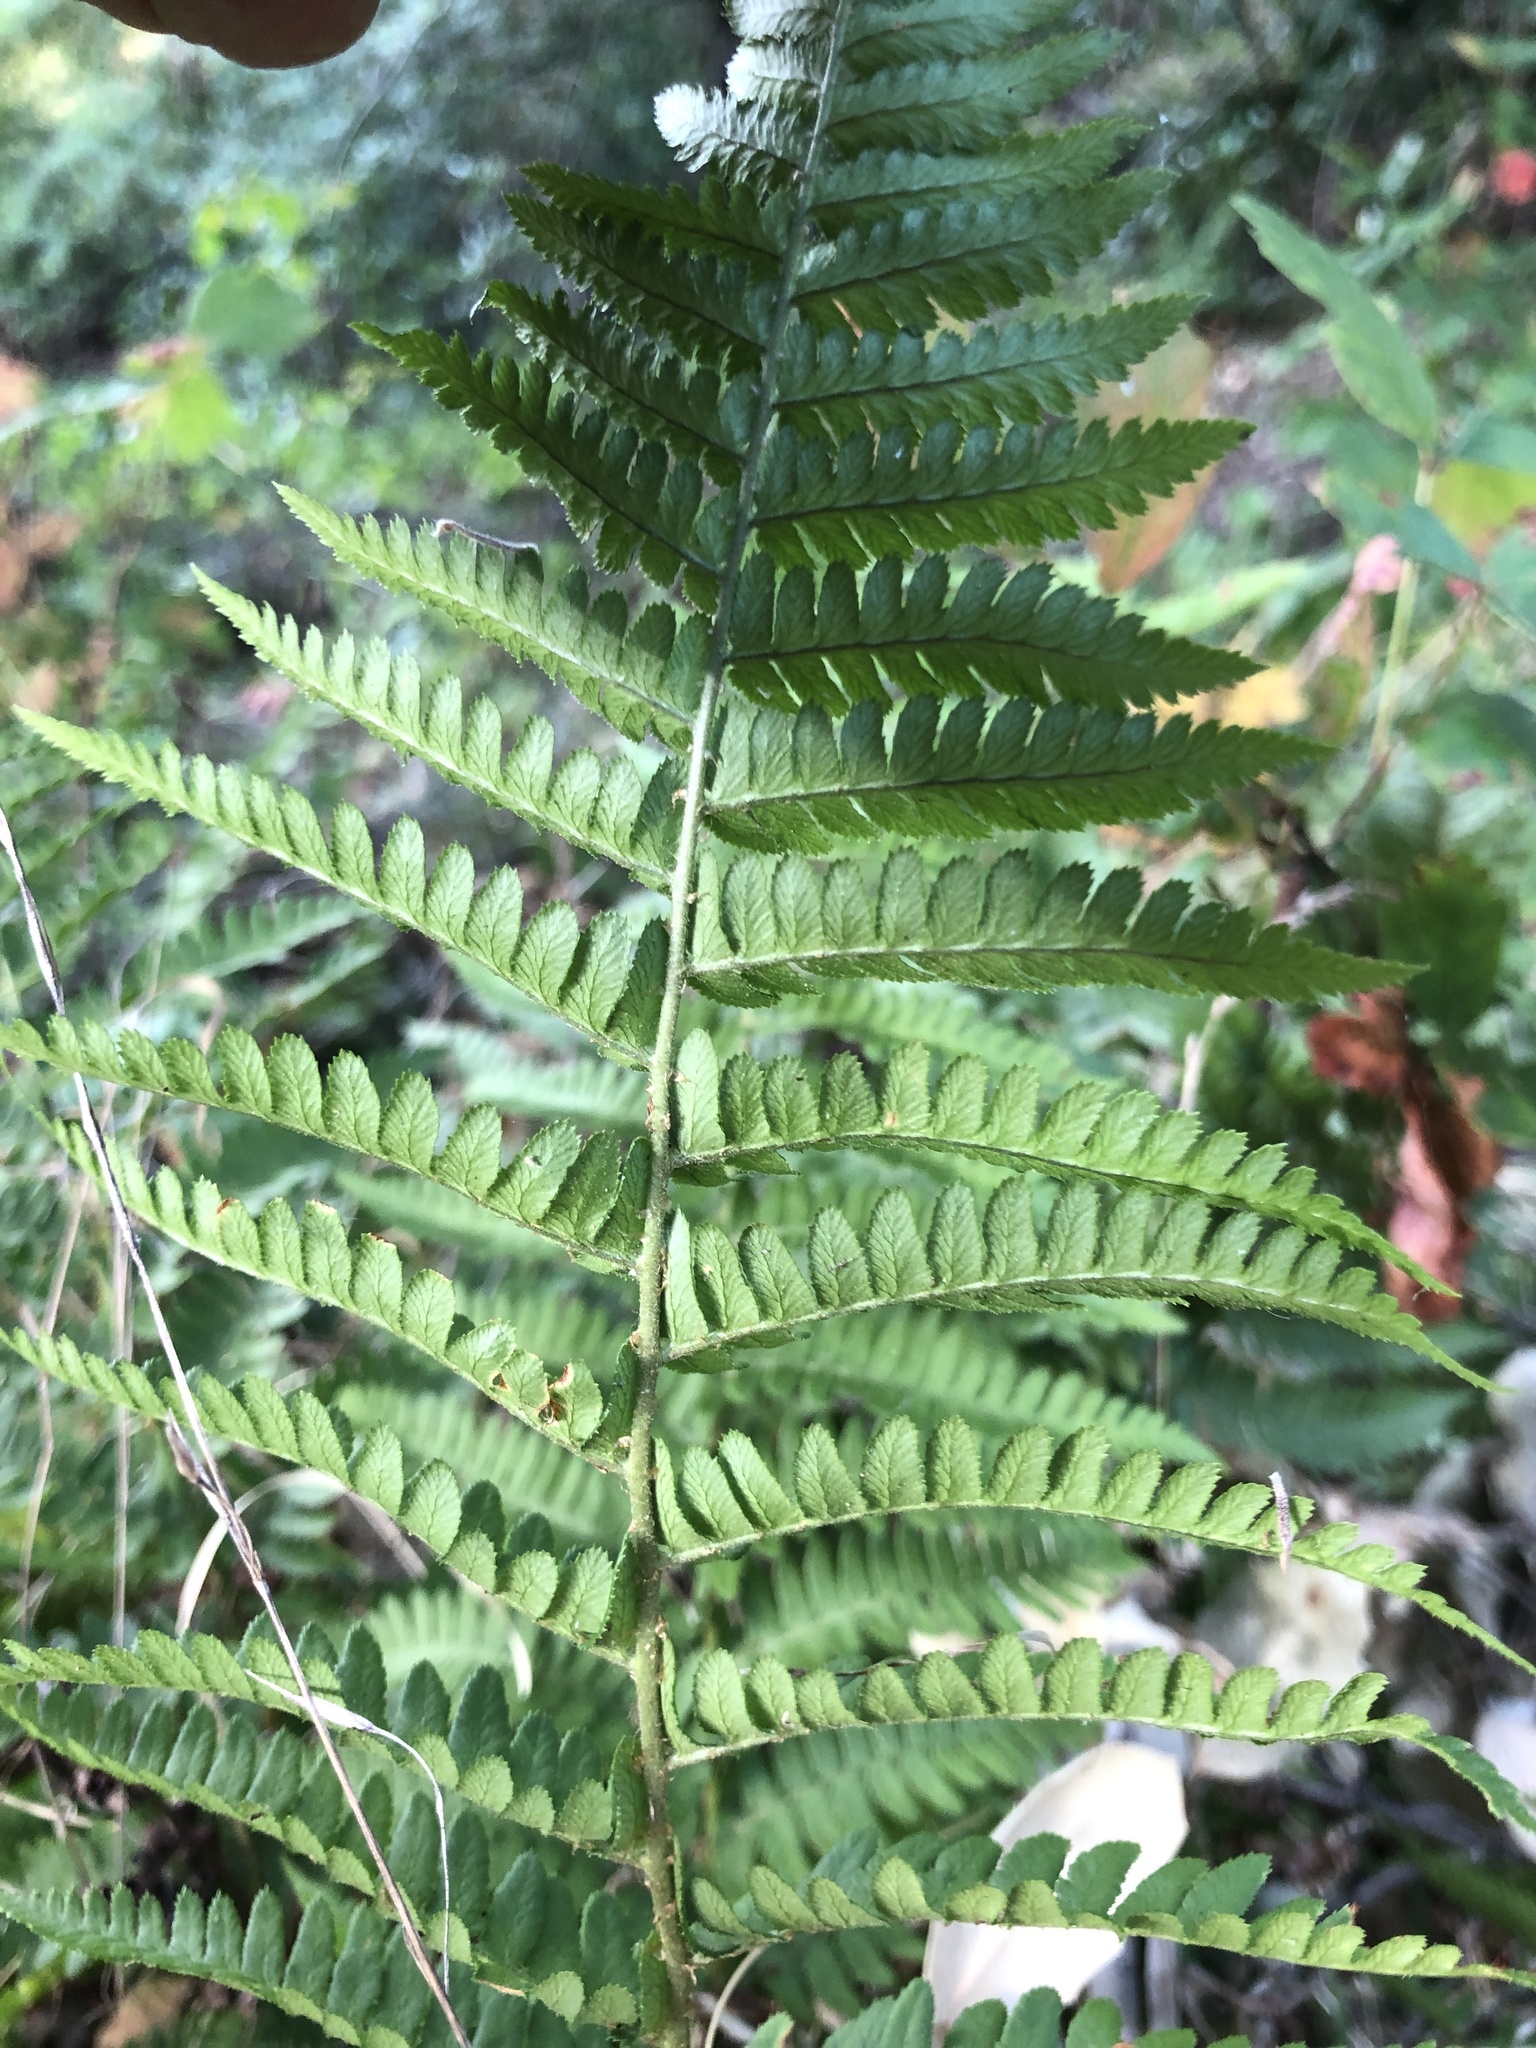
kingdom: Plantae
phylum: Tracheophyta
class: Polypodiopsida
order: Polypodiales
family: Dryopteridaceae
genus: Dryopteris
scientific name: Dryopteris arguta
